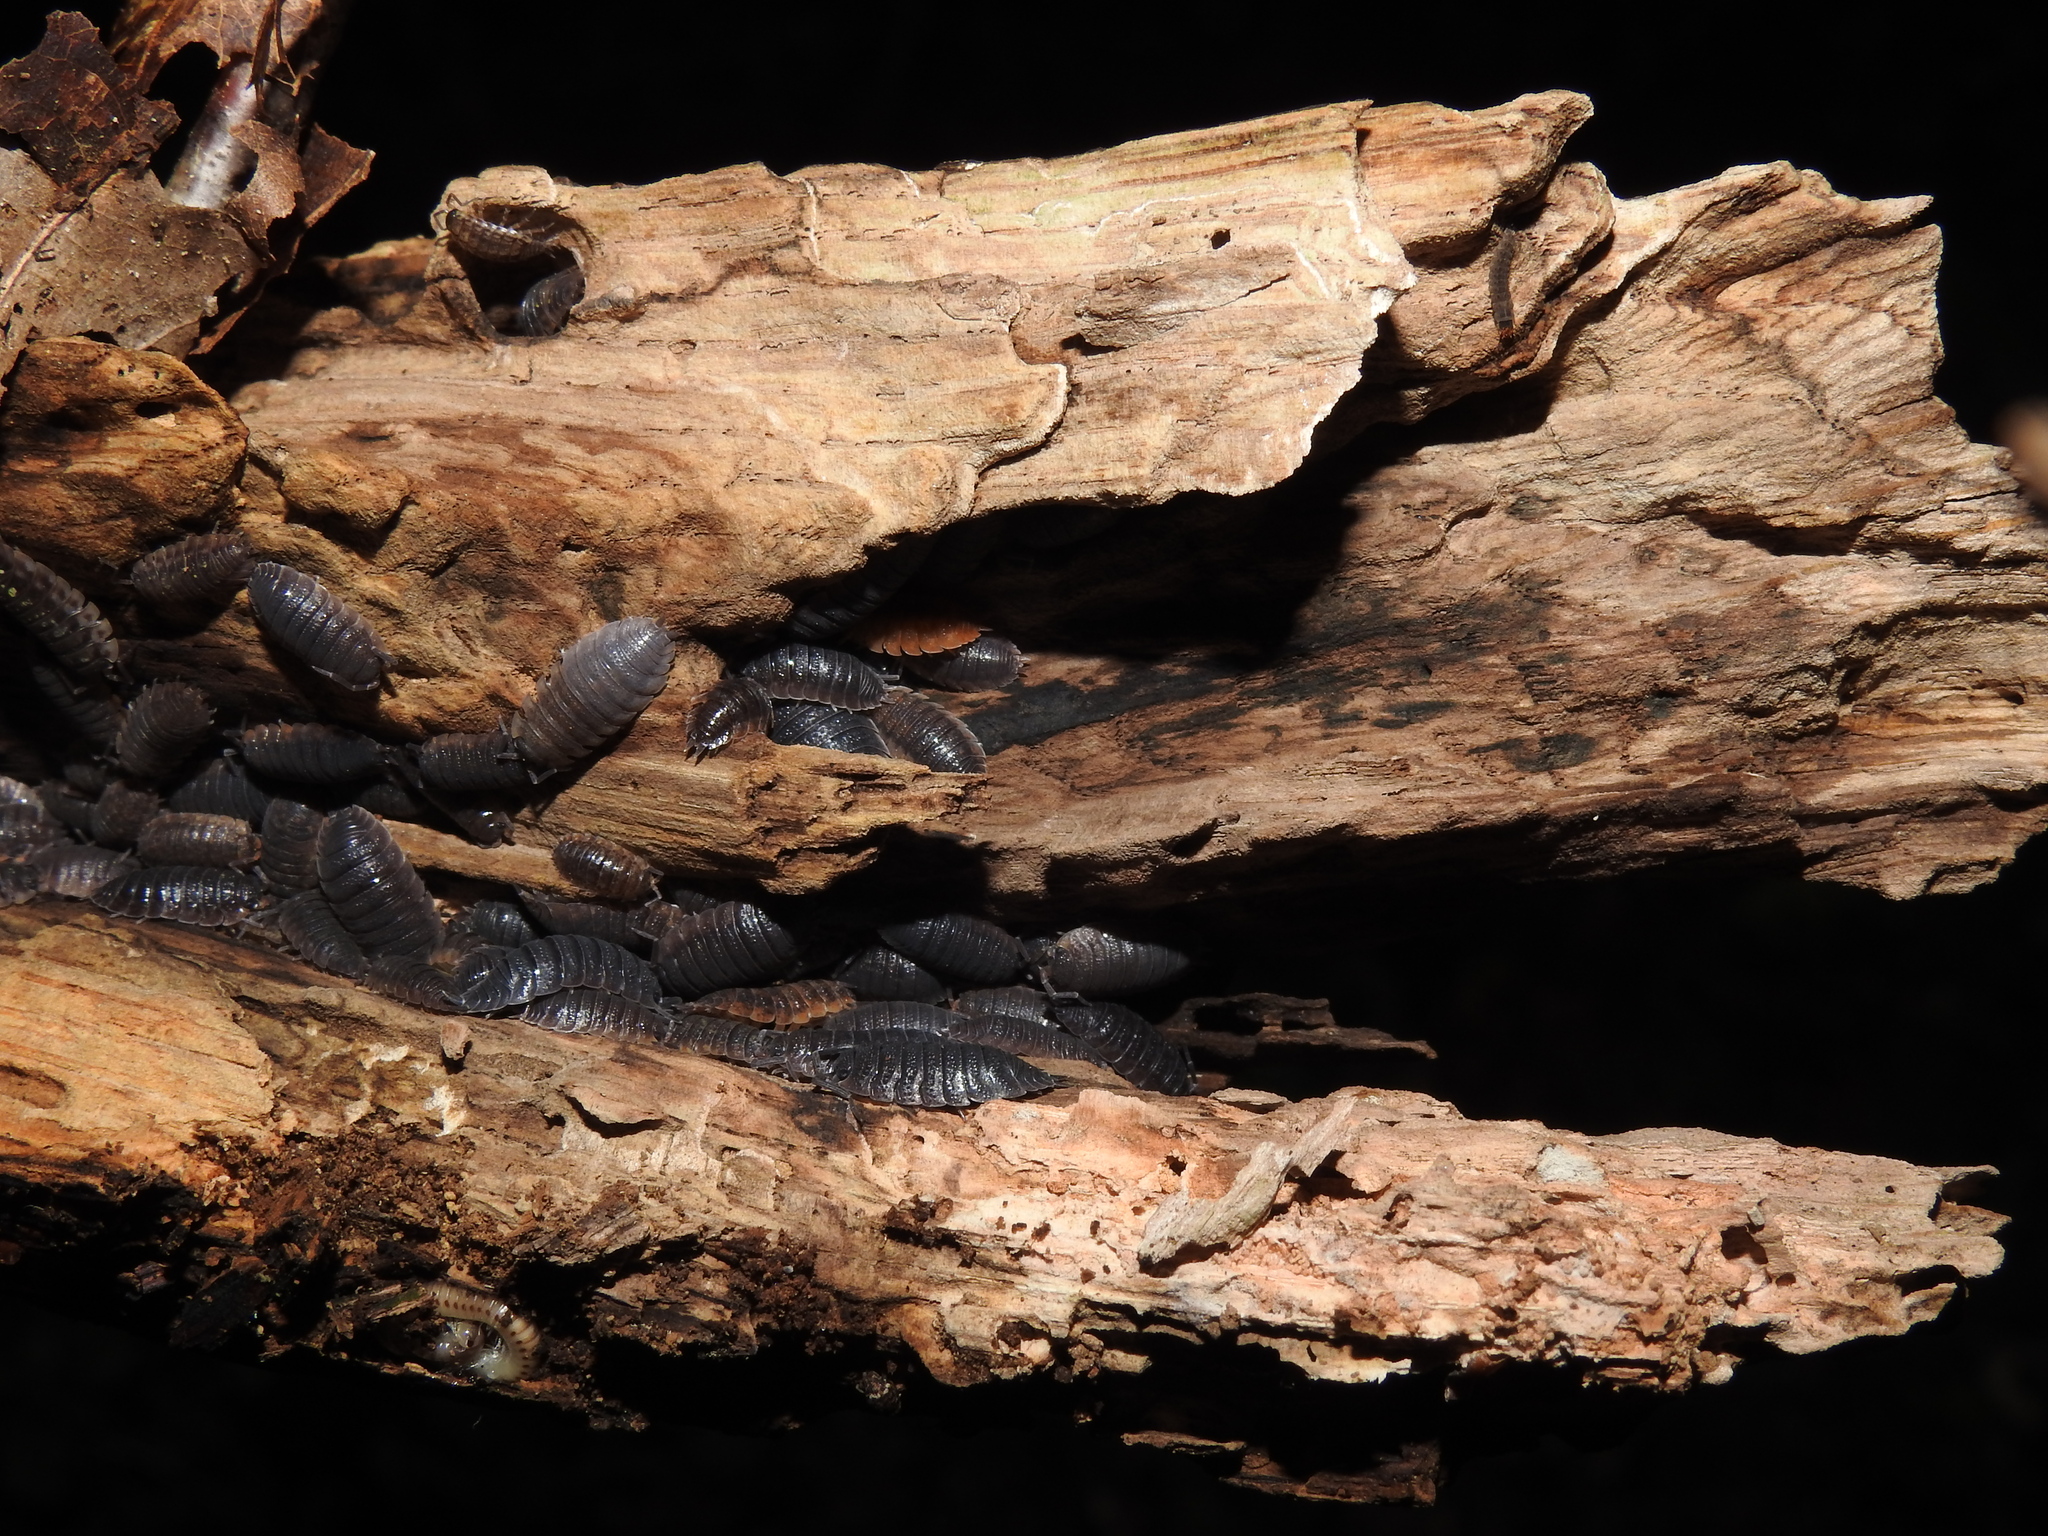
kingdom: Animalia
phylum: Arthropoda
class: Malacostraca
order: Isopoda
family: Porcellionidae
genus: Porcellio
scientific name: Porcellio scaber
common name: Common rough woodlouse
